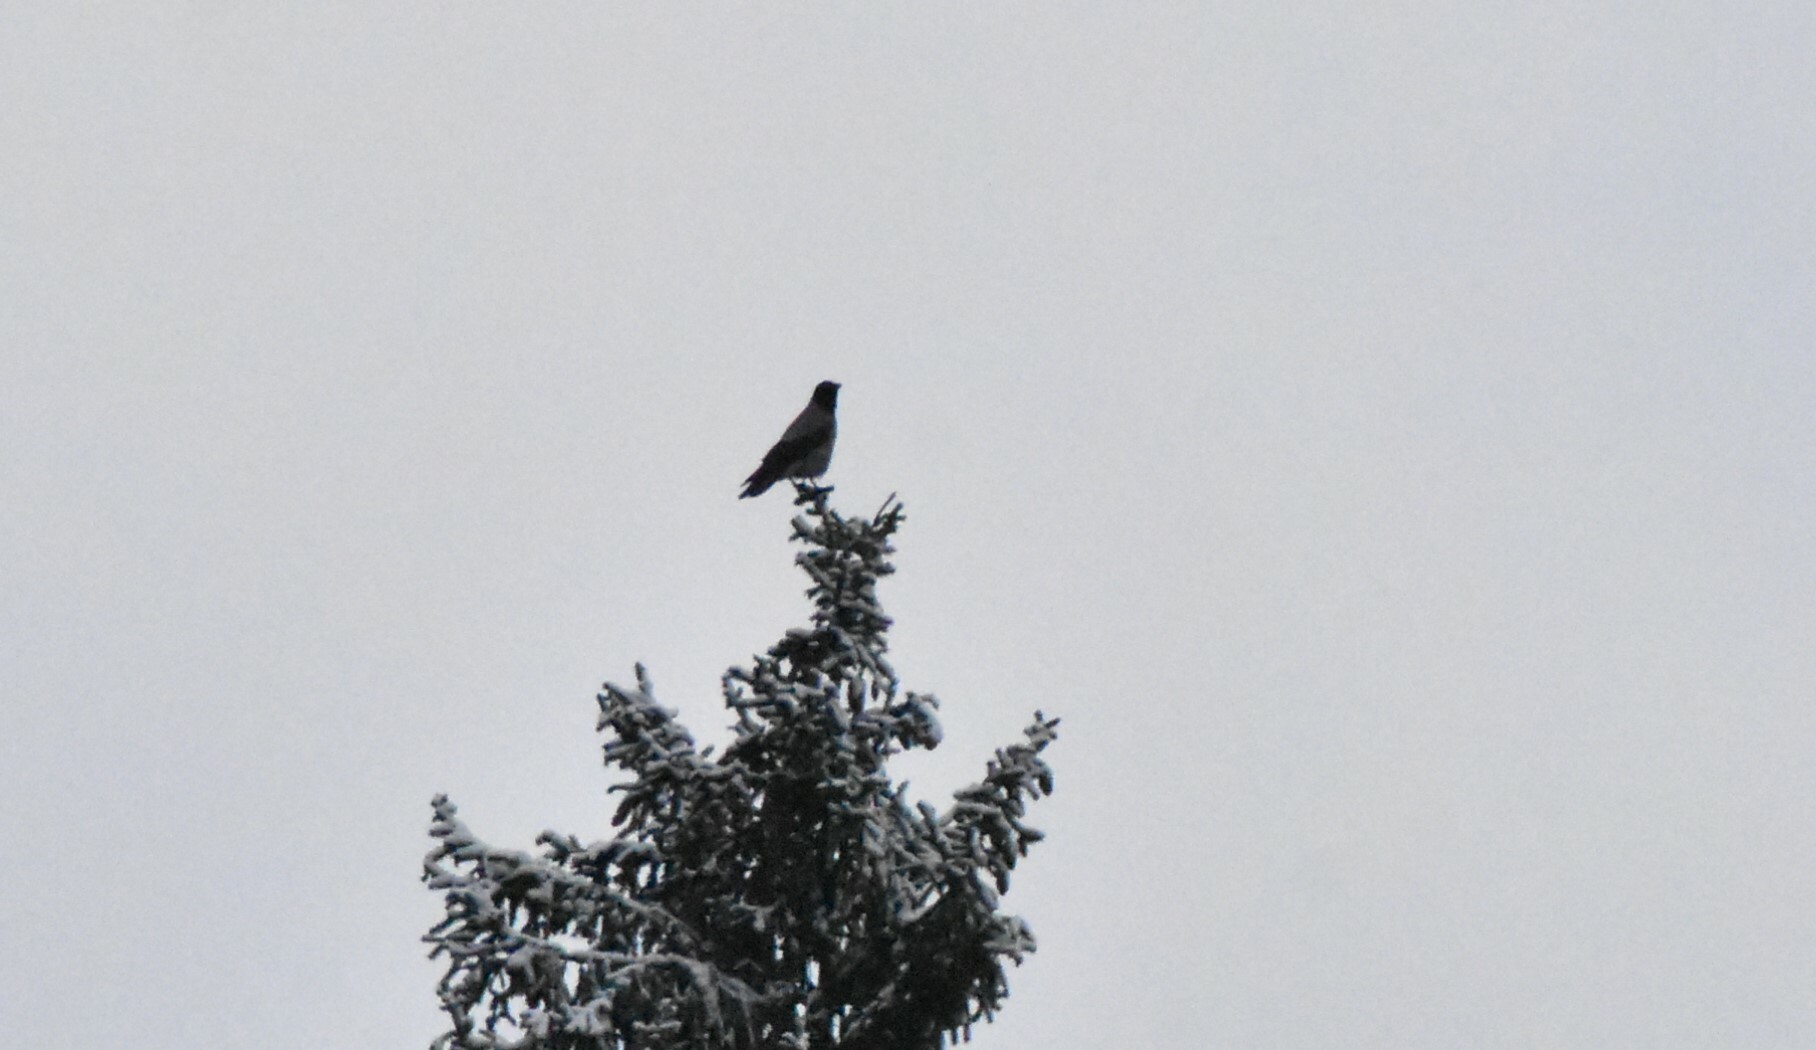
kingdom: Animalia
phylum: Chordata
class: Aves
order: Passeriformes
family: Corvidae
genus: Corvus
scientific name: Corvus cornix
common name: Hooded crow
